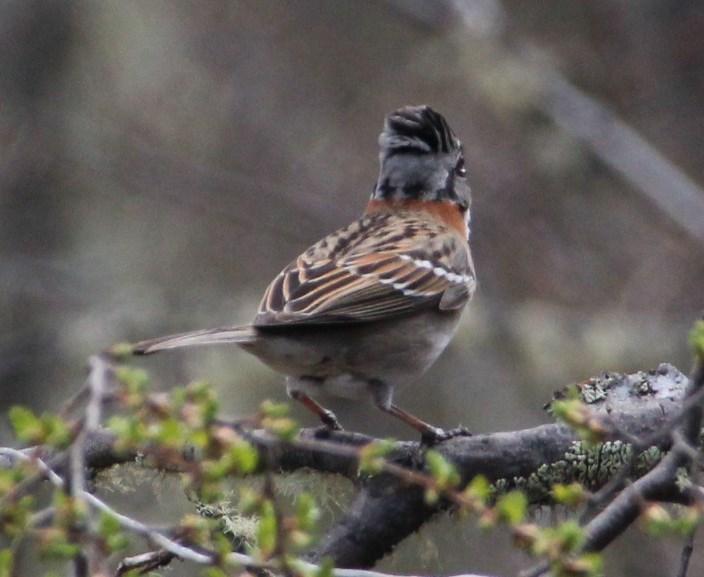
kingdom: Animalia
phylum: Chordata
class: Aves
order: Passeriformes
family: Passerellidae
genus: Zonotrichia
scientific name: Zonotrichia capensis
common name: Rufous-collared sparrow
